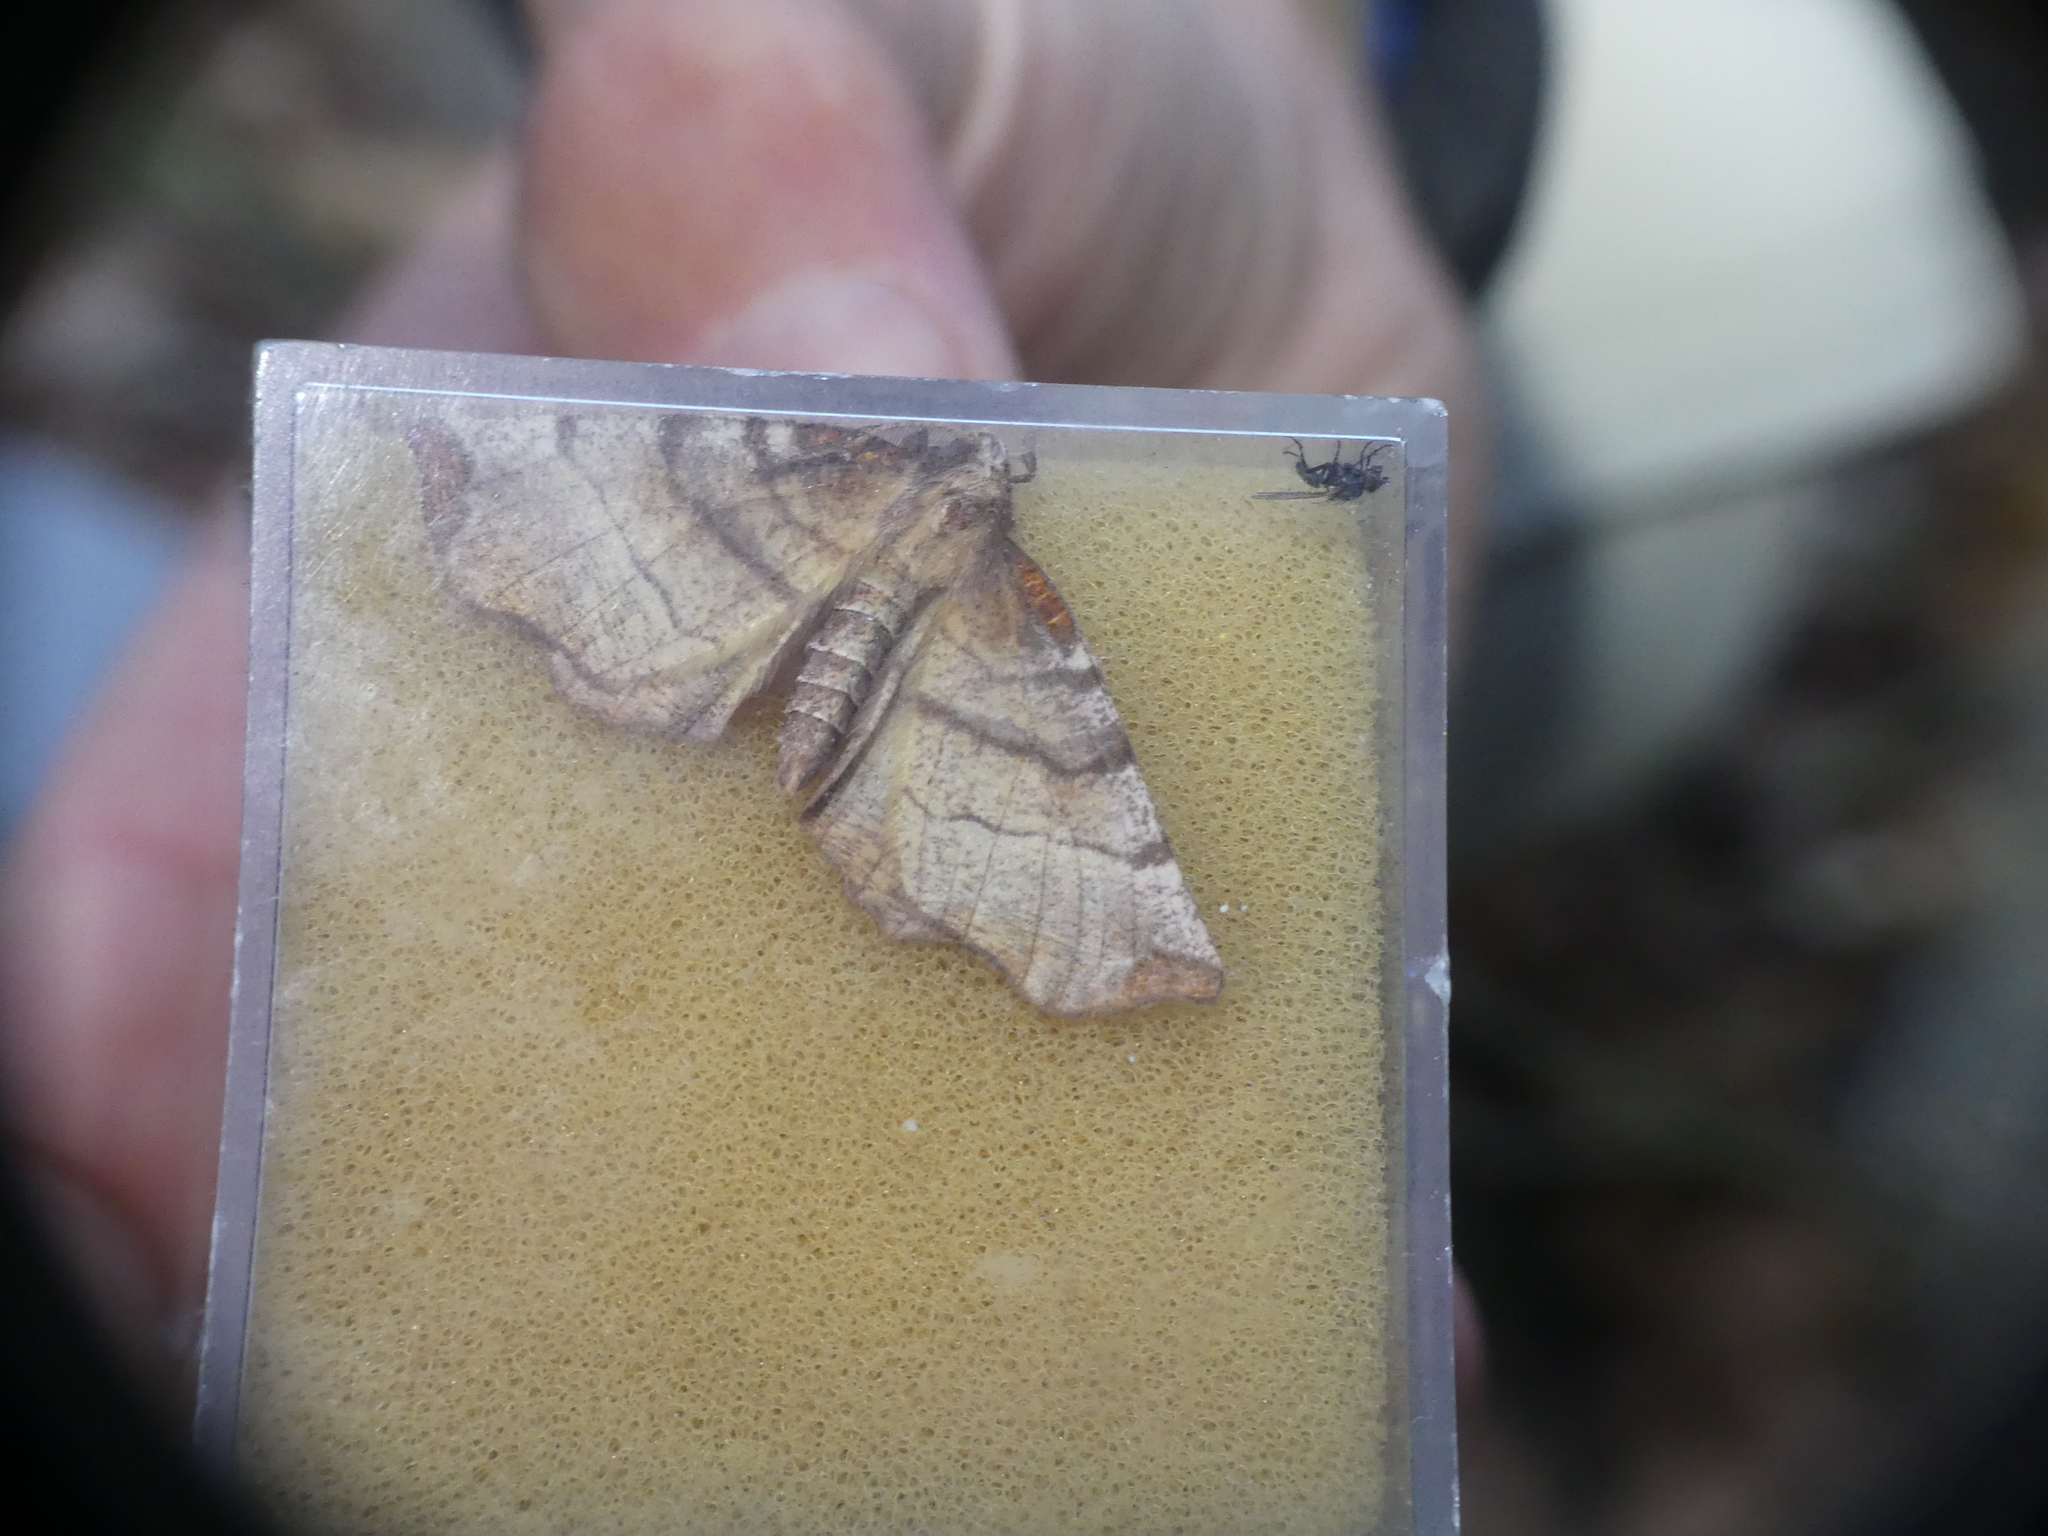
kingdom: Animalia
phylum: Arthropoda
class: Insecta
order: Lepidoptera
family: Geometridae
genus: Selenia
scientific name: Selenia dentaria
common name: Early thorn
